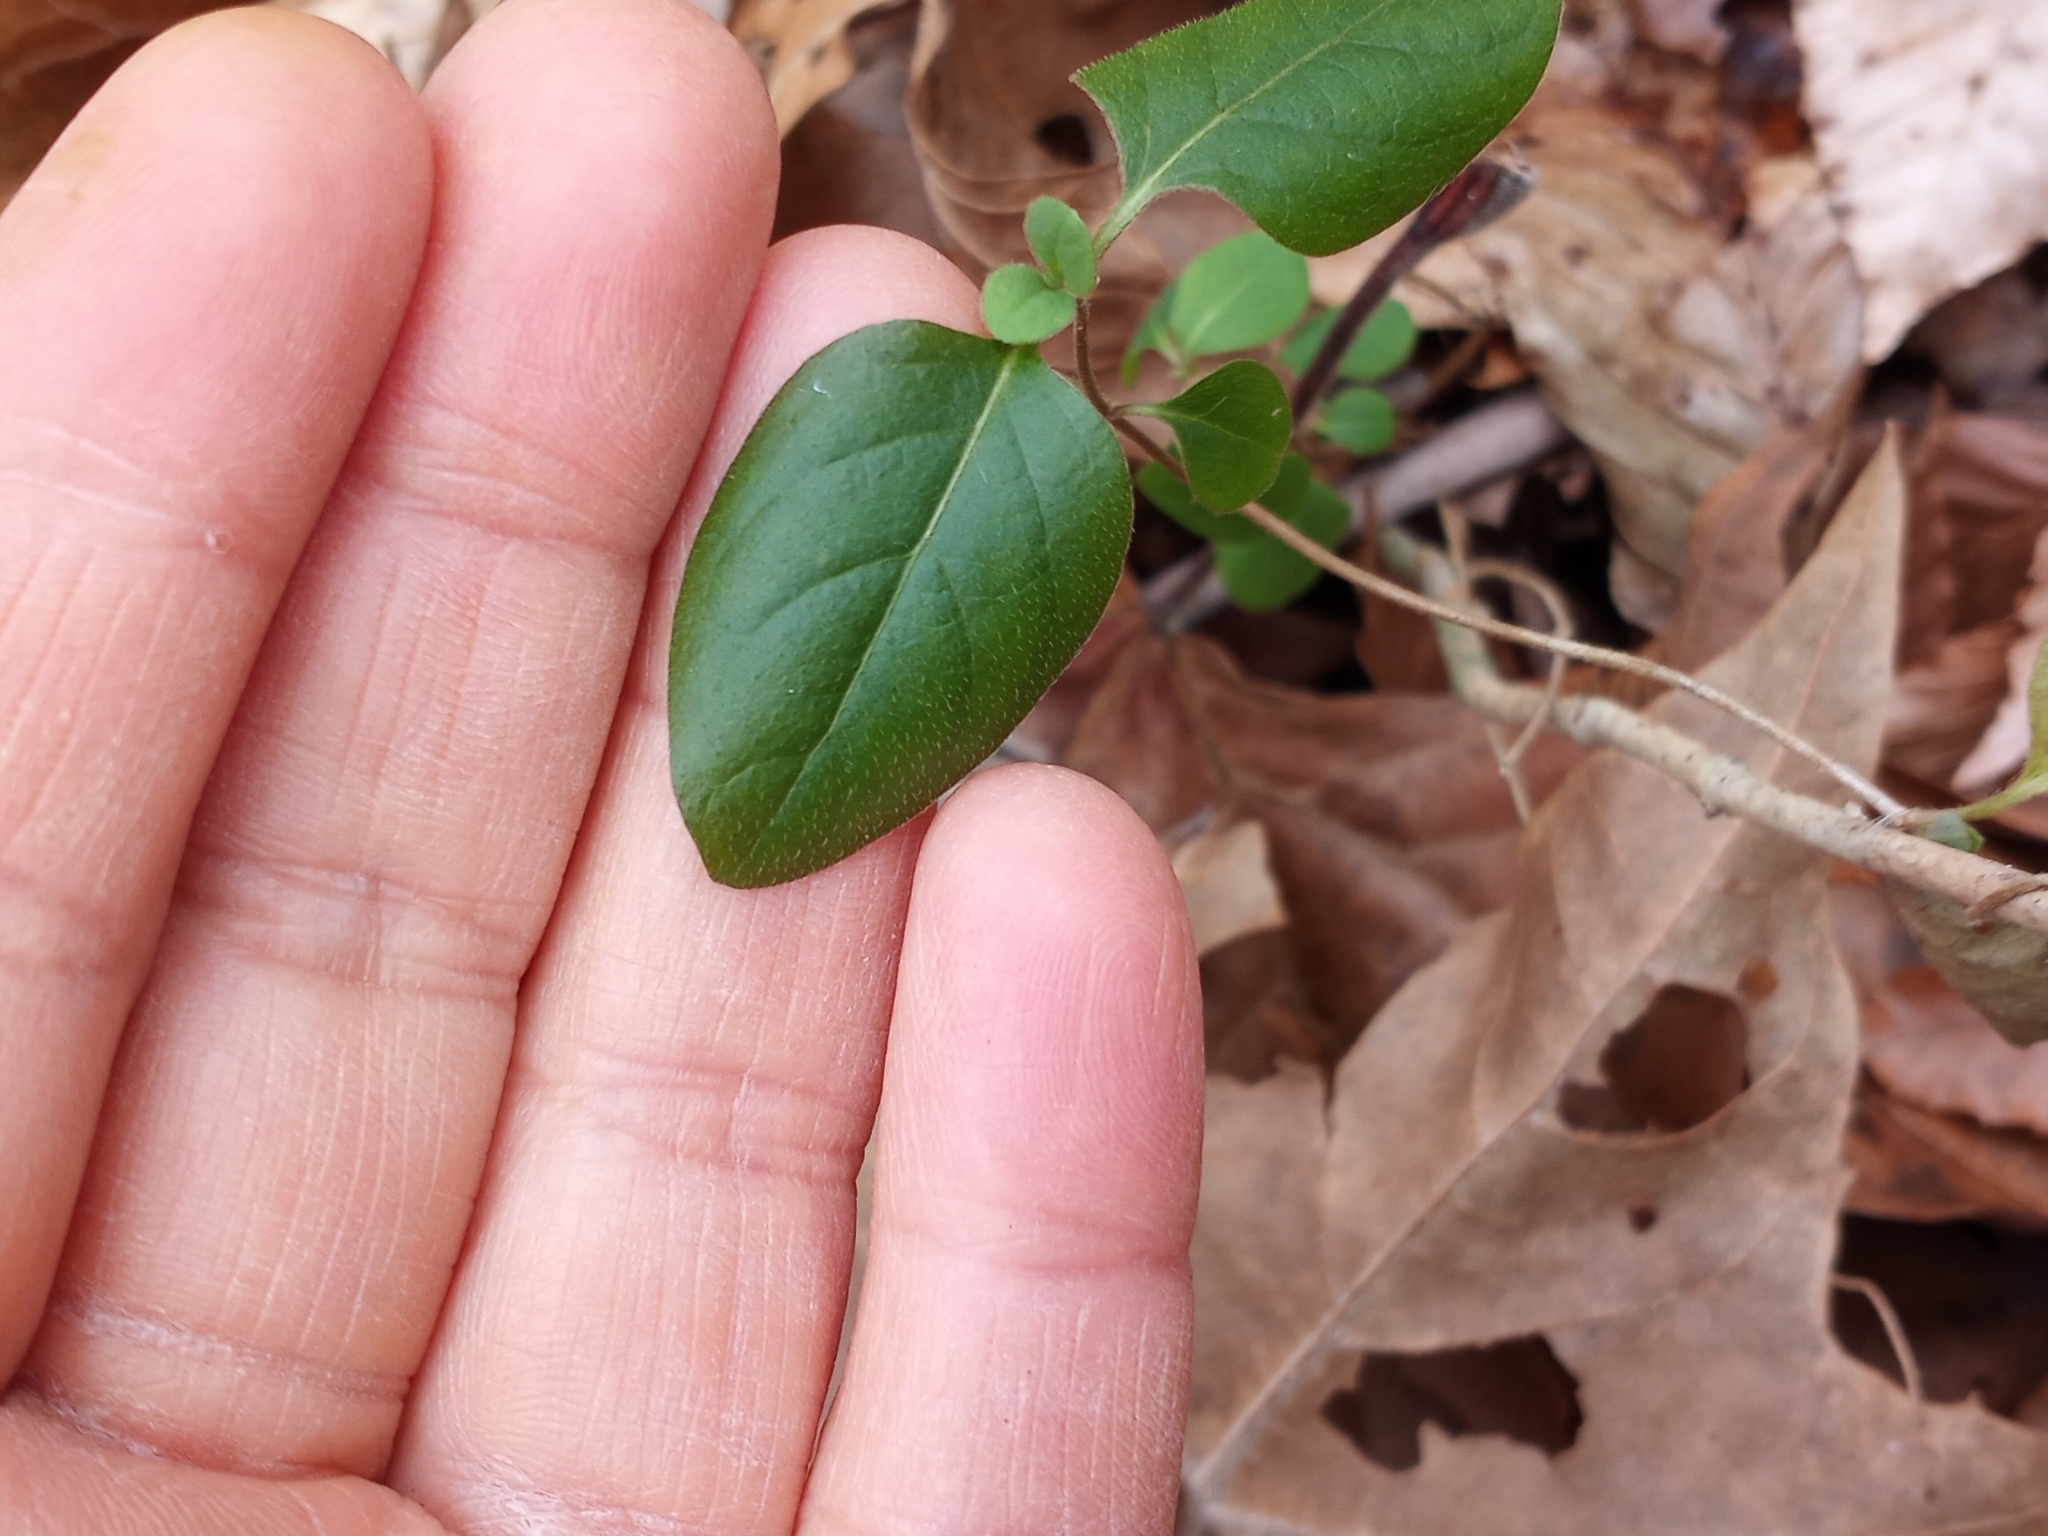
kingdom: Plantae
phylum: Tracheophyta
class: Magnoliopsida
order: Dipsacales
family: Caprifoliaceae
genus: Lonicera
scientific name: Lonicera japonica
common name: Japanese honeysuckle
